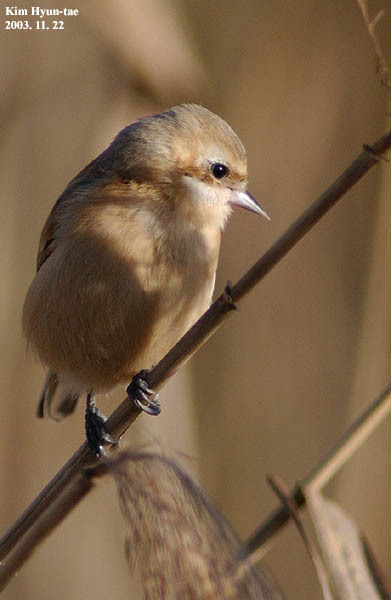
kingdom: Animalia
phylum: Chordata
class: Aves
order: Passeriformes
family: Remizidae
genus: Remiz
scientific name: Remiz consobrinus
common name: Chinese penduline tit
